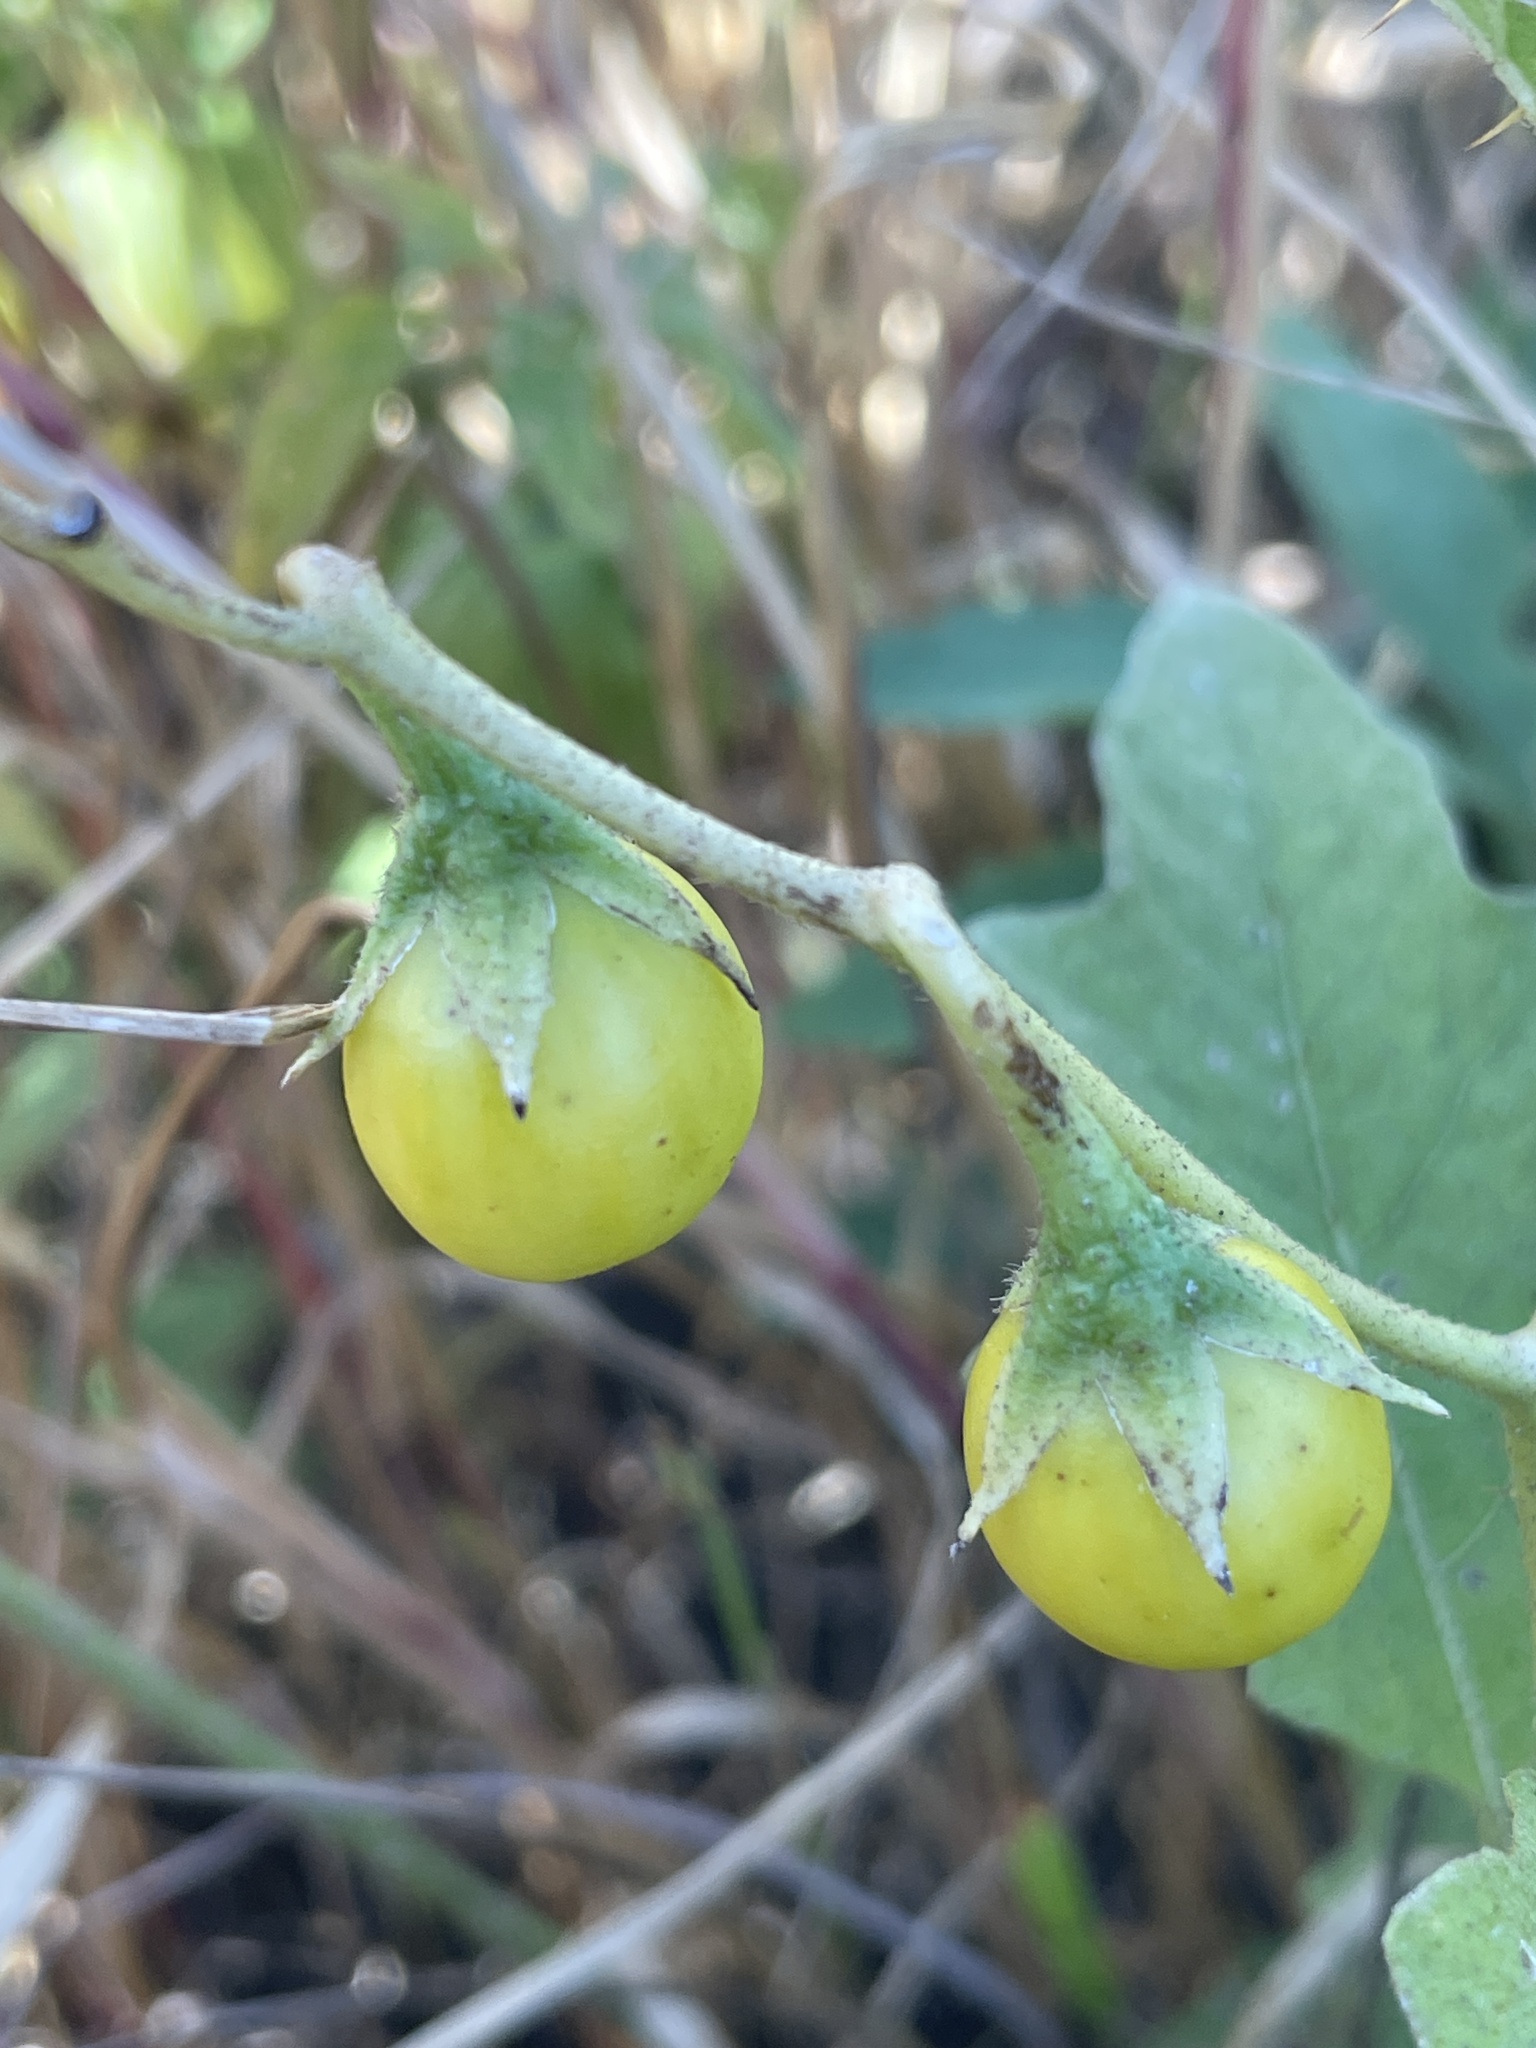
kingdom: Plantae
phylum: Tracheophyta
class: Magnoliopsida
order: Solanales
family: Solanaceae
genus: Solanum
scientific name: Solanum carolinense
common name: Horse-nettle
